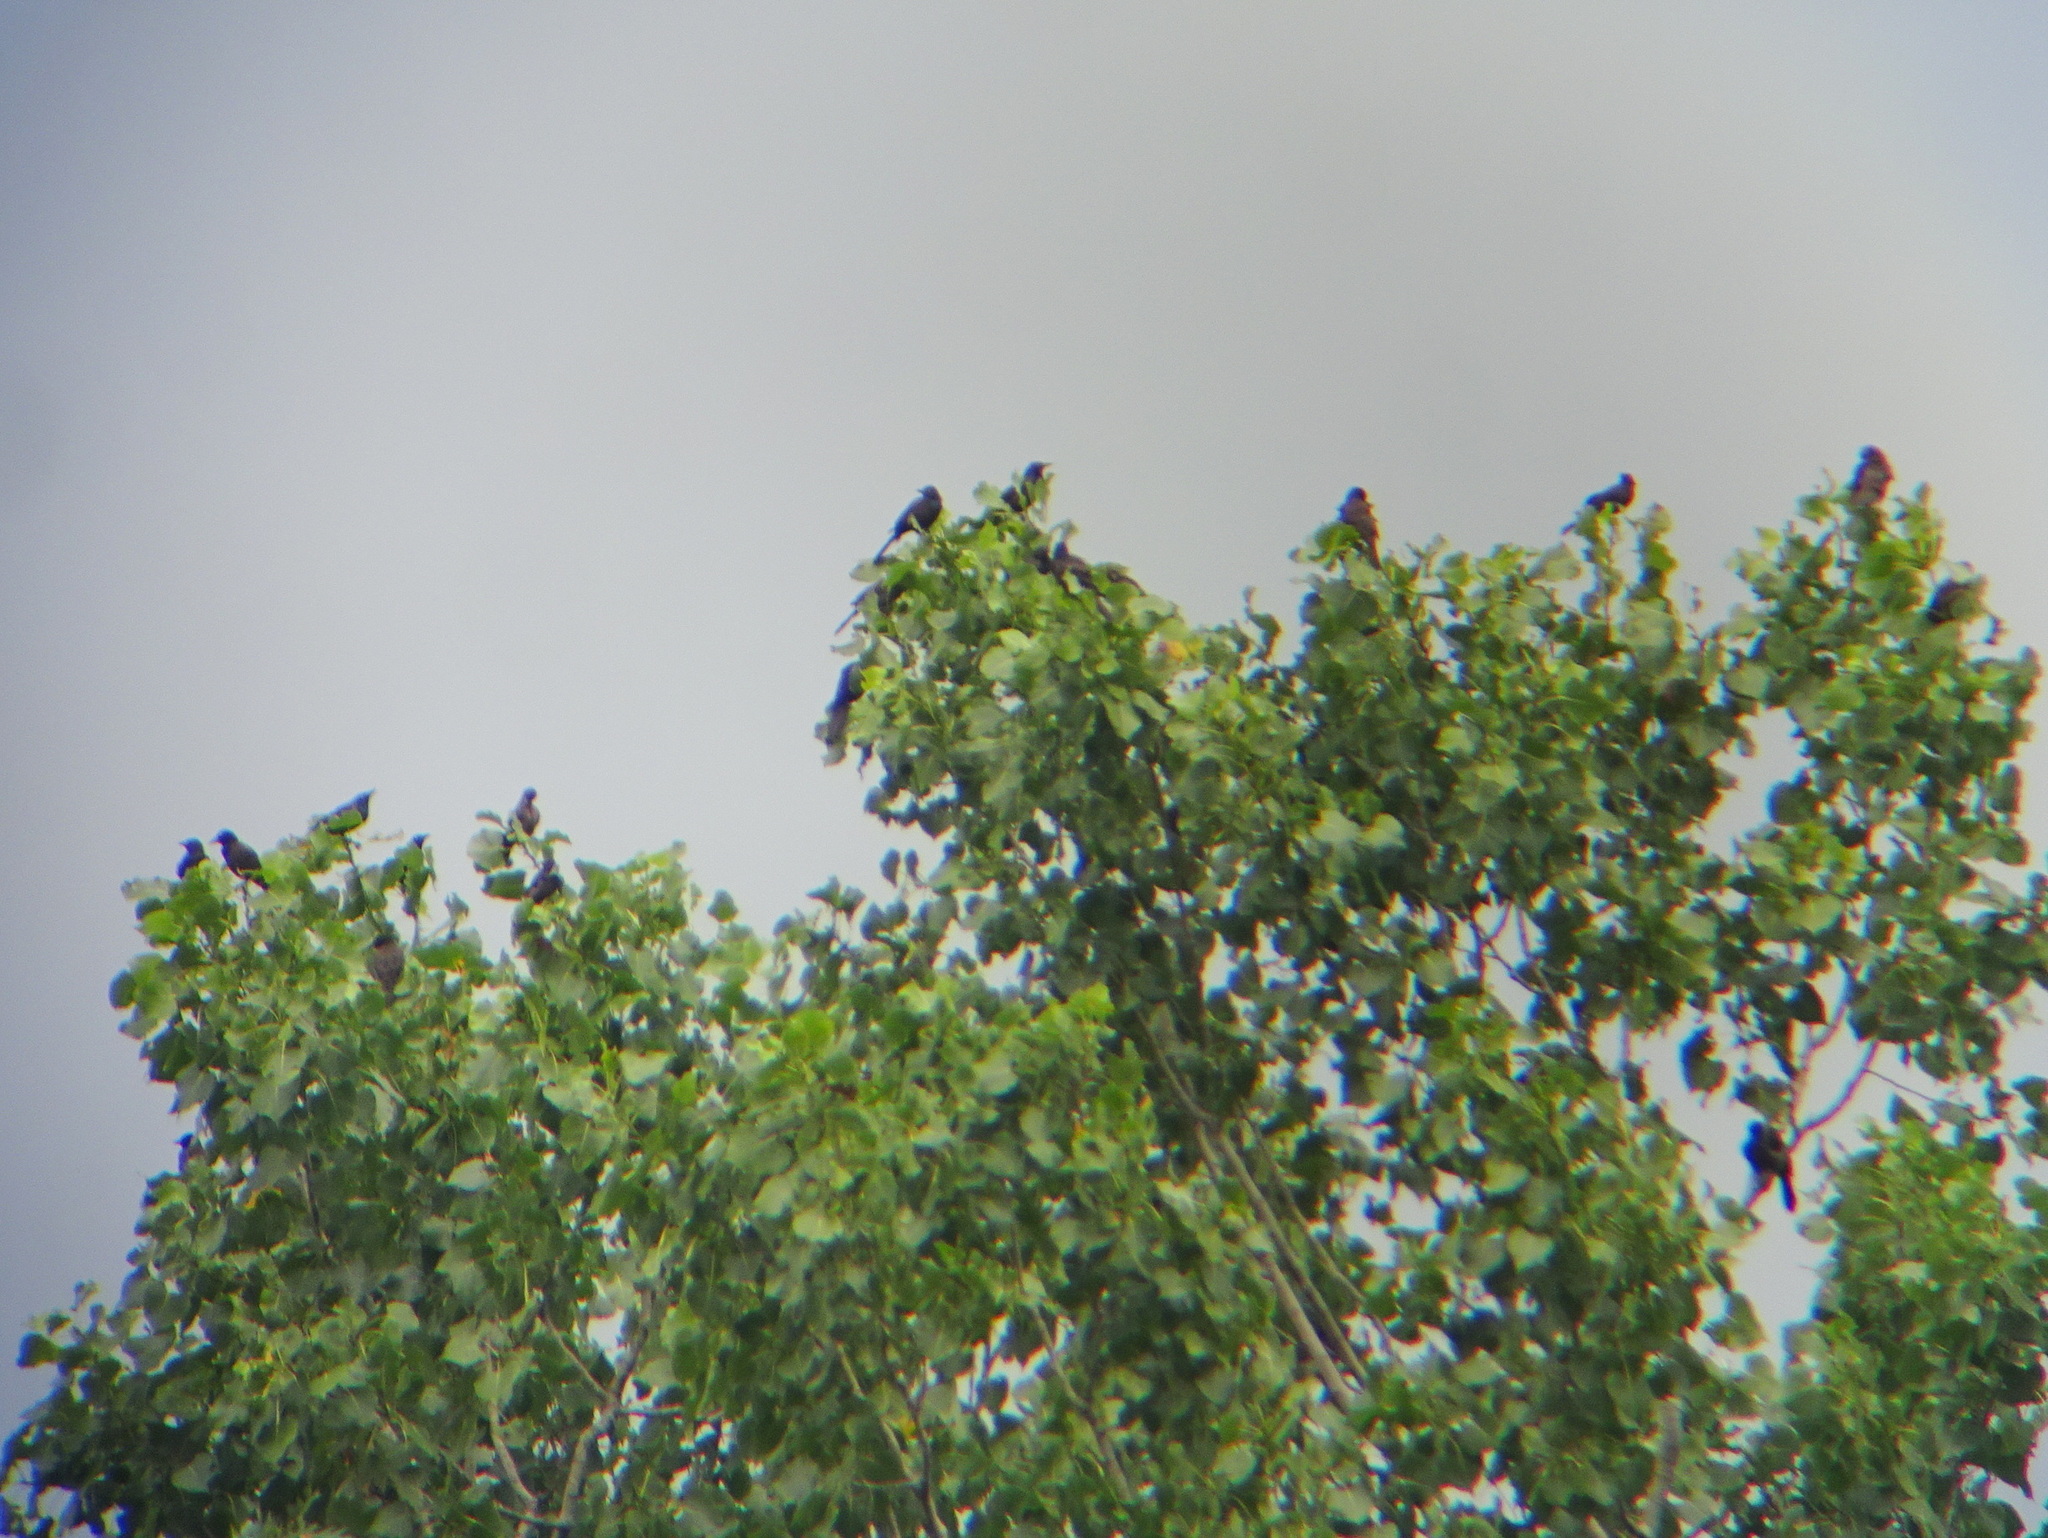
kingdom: Animalia
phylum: Chordata
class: Aves
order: Passeriformes
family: Icteridae
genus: Quiscalus
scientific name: Quiscalus quiscula
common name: Common grackle
